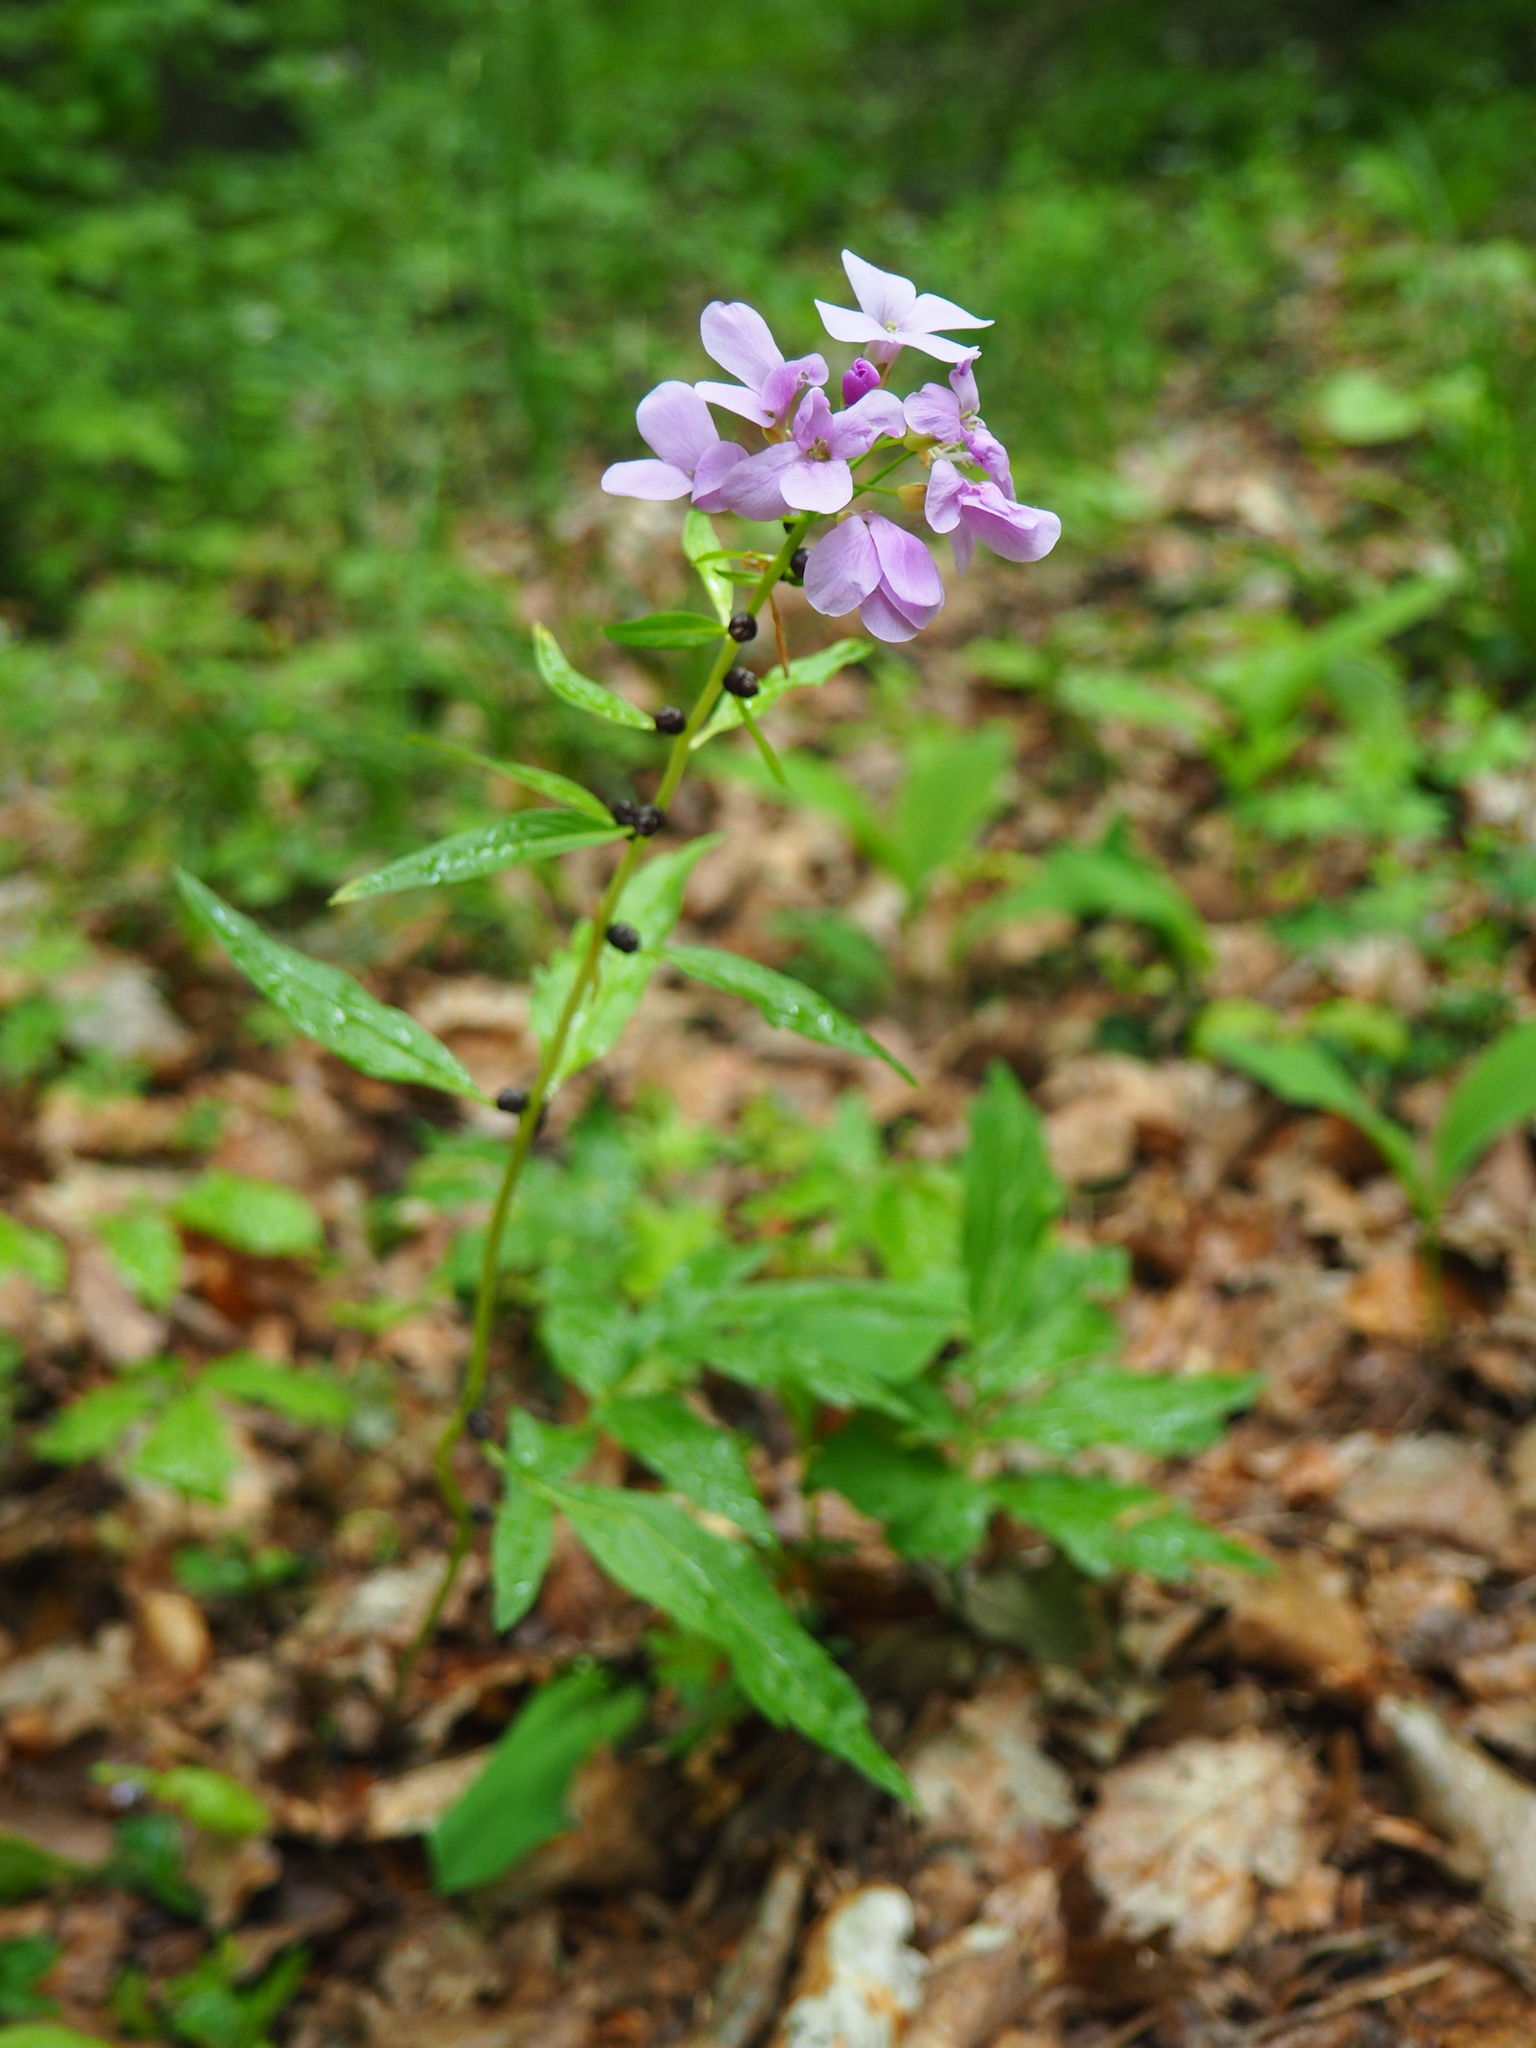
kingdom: Plantae
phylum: Tracheophyta
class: Magnoliopsida
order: Brassicales
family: Brassicaceae
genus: Cardamine
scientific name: Cardamine bulbifera
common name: Coralroot bittercress
